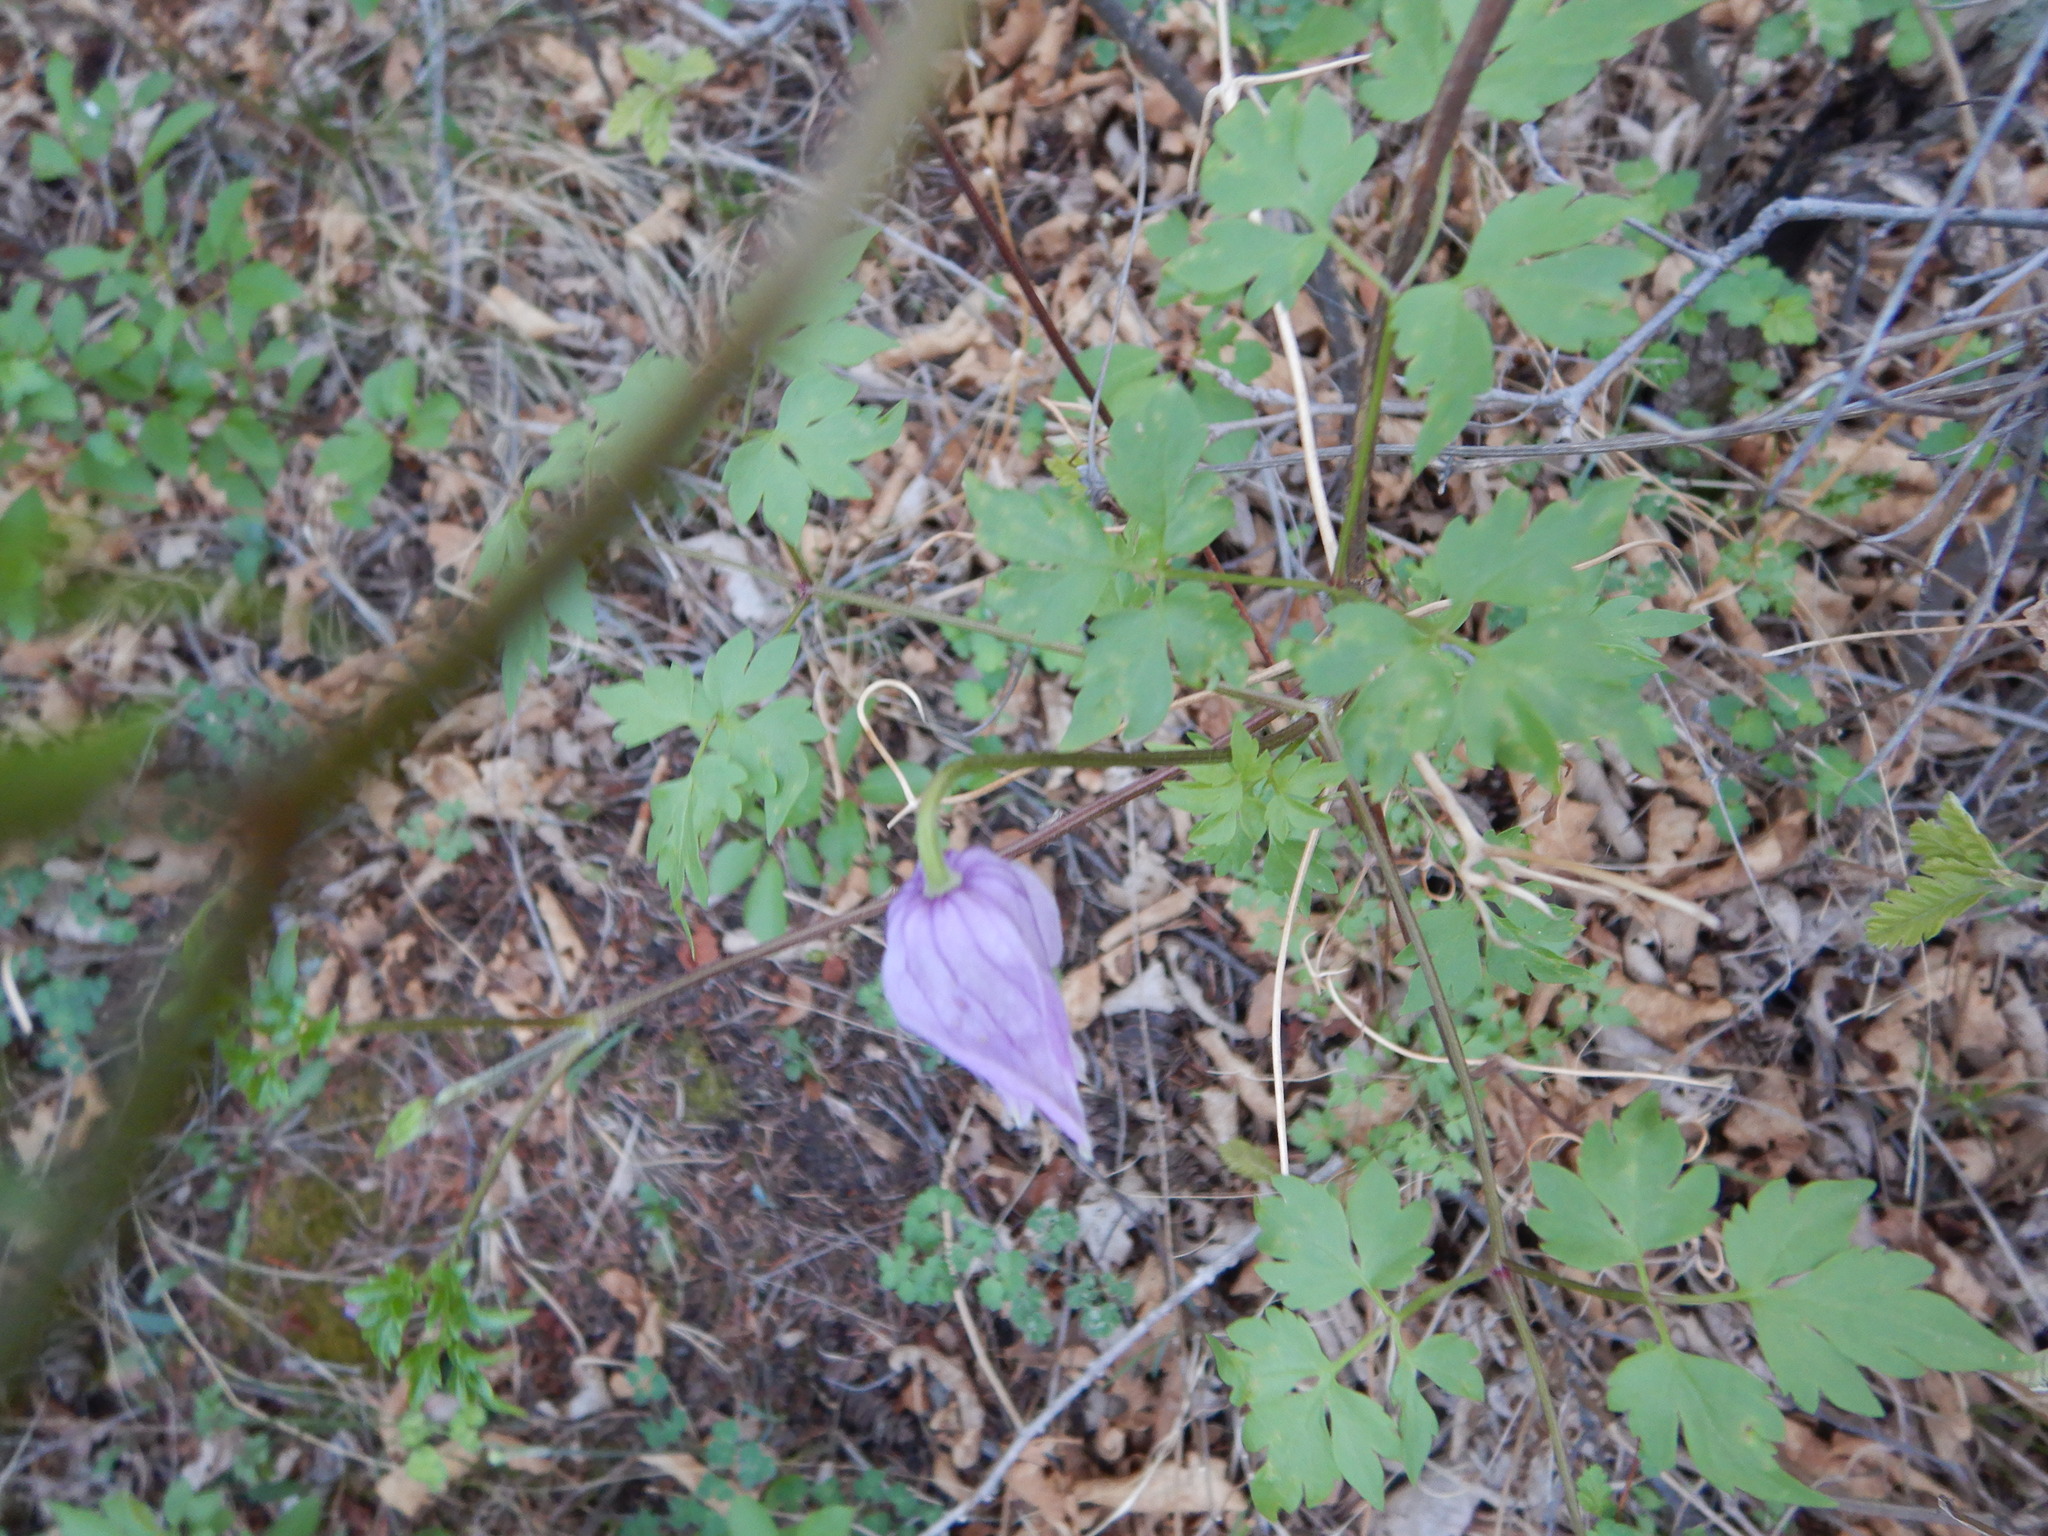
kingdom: Plantae
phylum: Tracheophyta
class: Magnoliopsida
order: Ranunculales
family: Ranunculaceae
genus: Clematis
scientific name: Clematis columbiana
